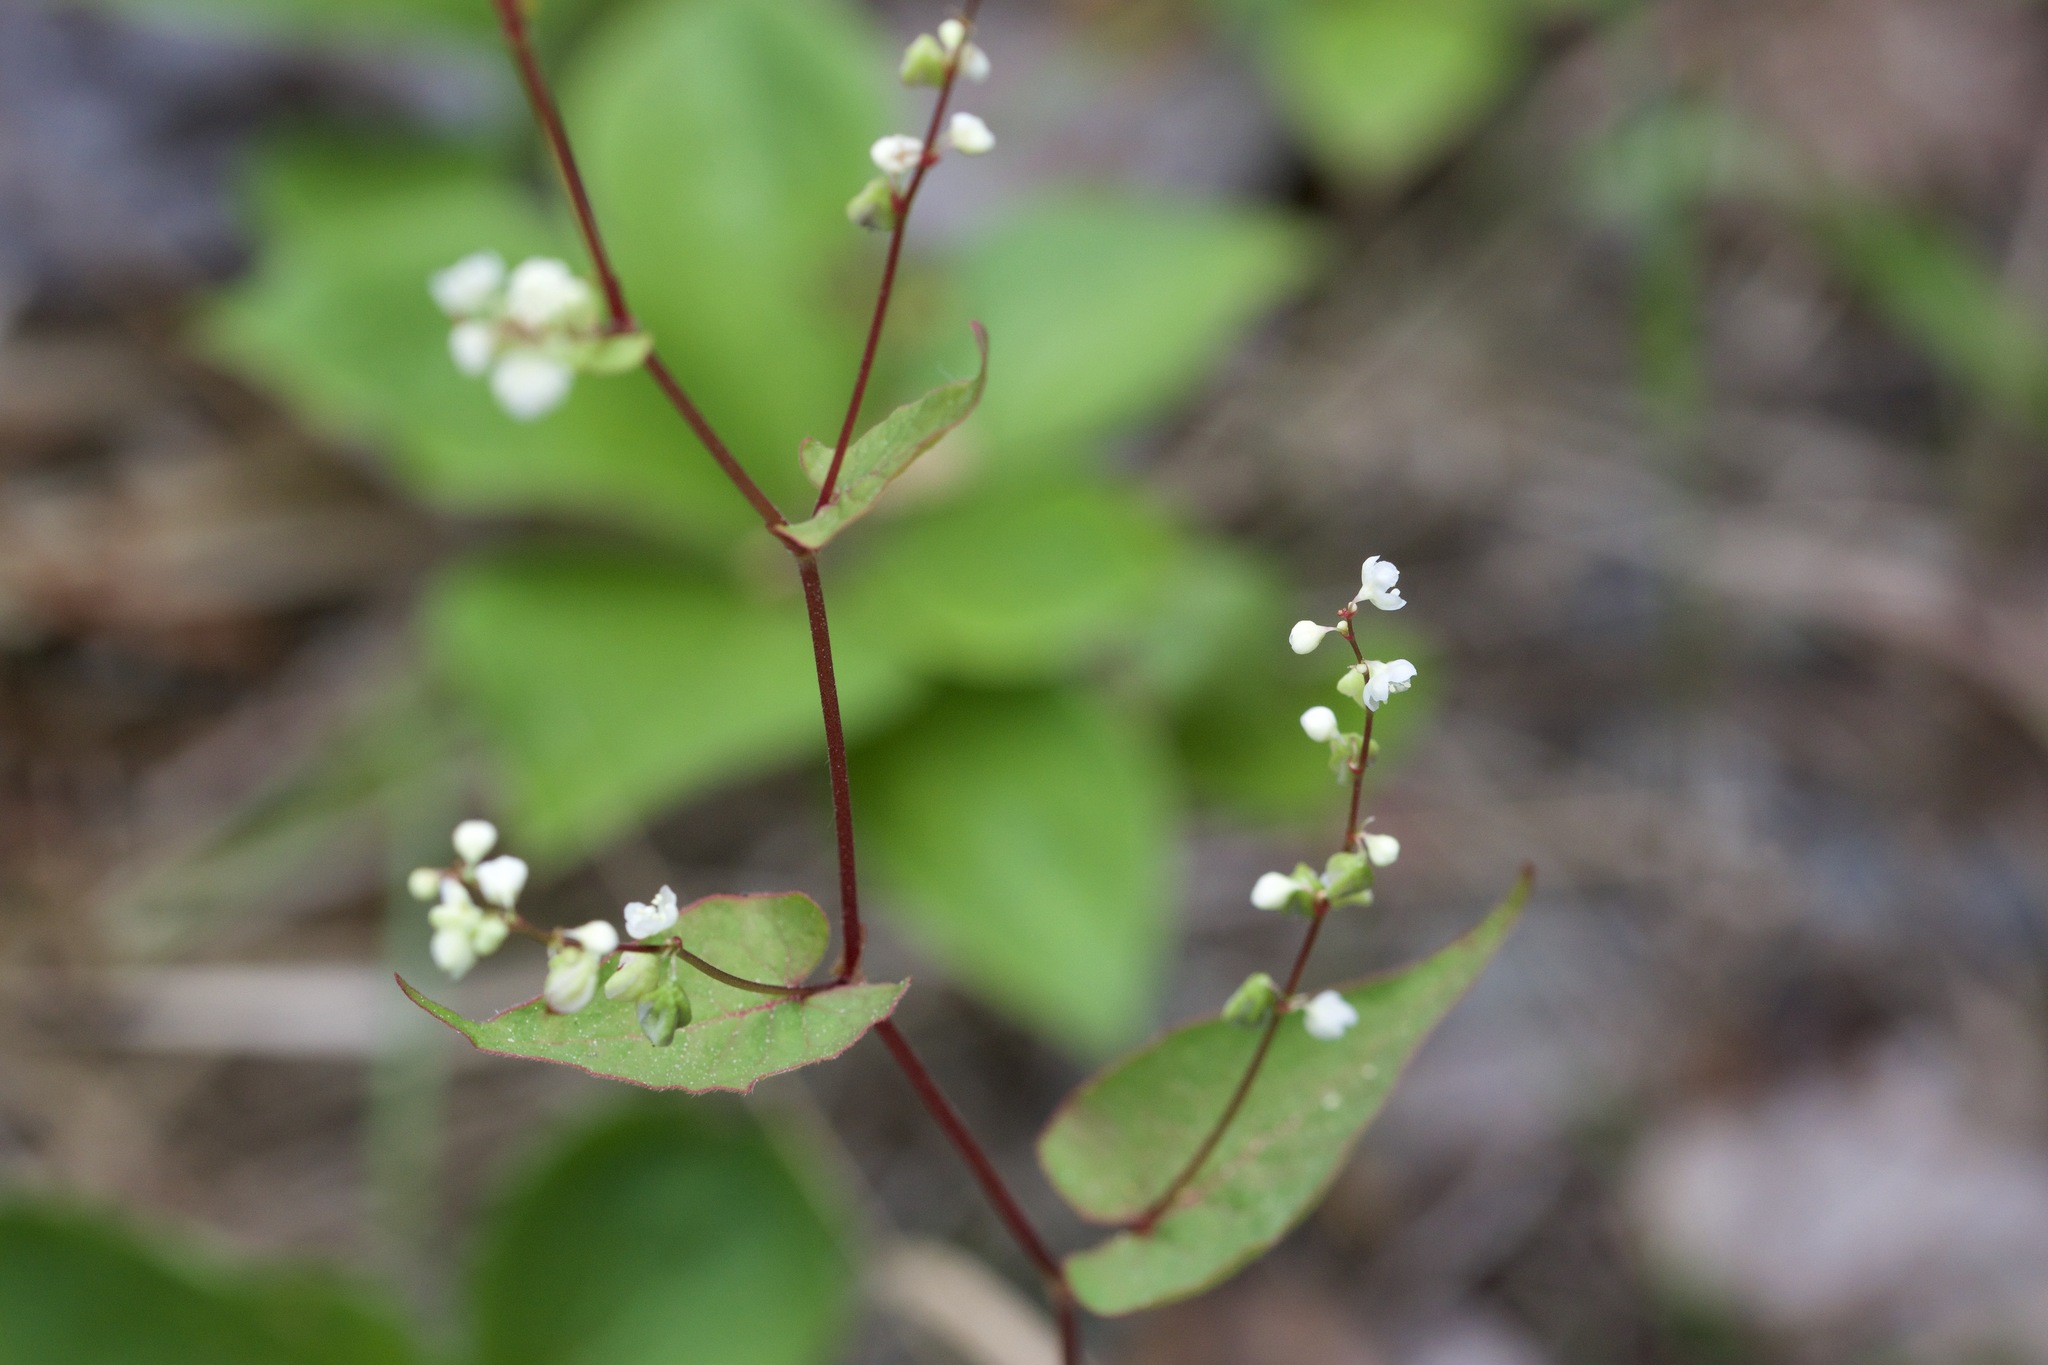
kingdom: Plantae
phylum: Tracheophyta
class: Magnoliopsida
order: Caryophyllales
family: Polygonaceae
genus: Parogonum
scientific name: Parogonum ciliinode
